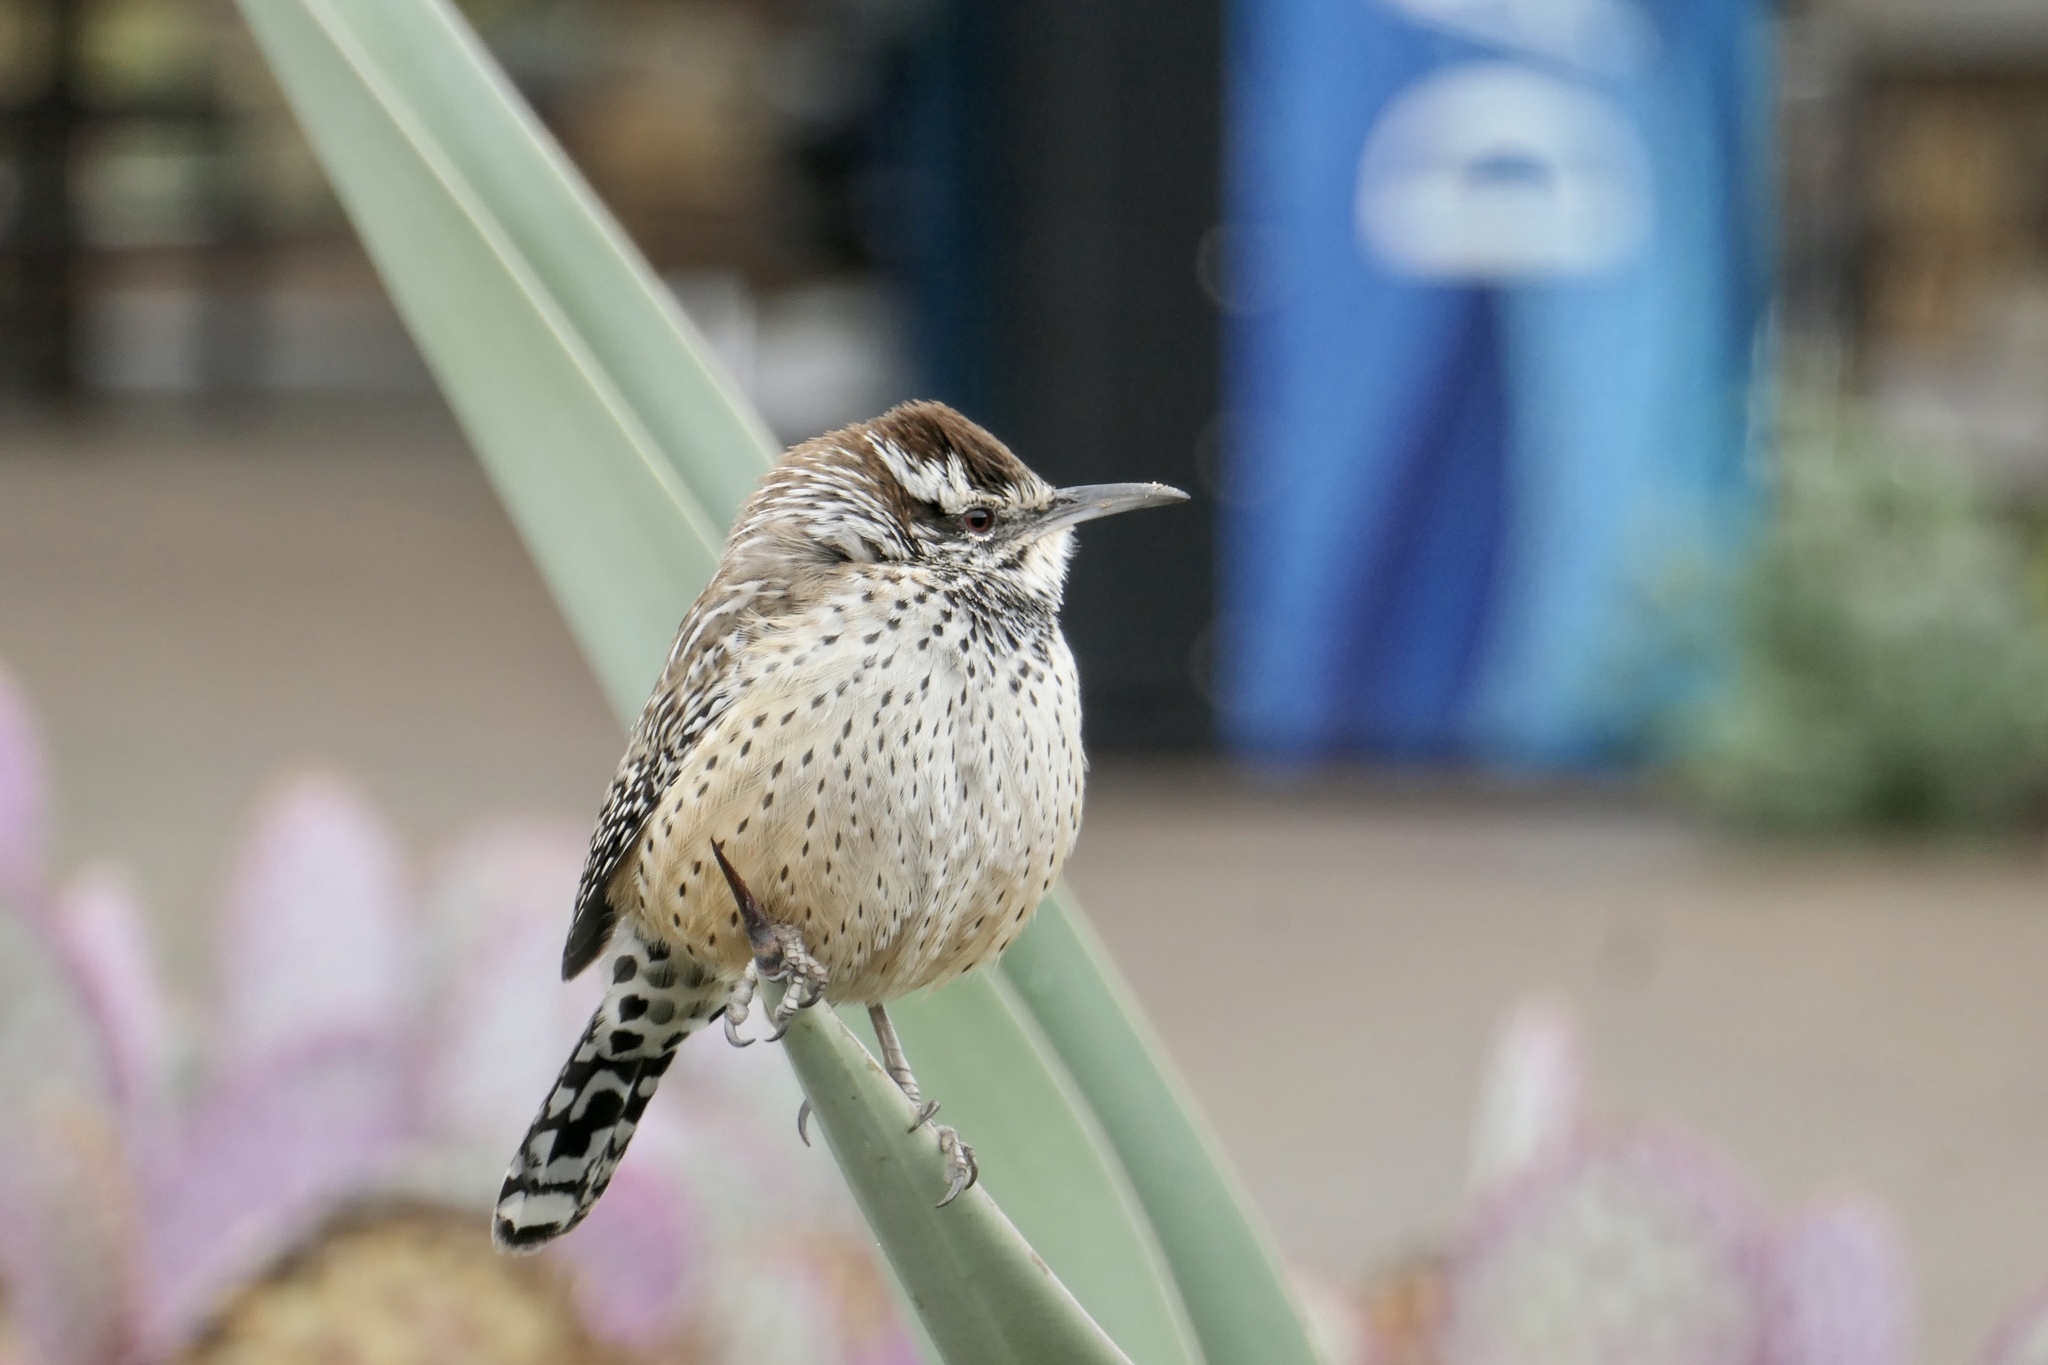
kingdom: Animalia
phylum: Chordata
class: Aves
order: Passeriformes
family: Troglodytidae
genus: Campylorhynchus
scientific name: Campylorhynchus brunneicapillus
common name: Cactus wren
